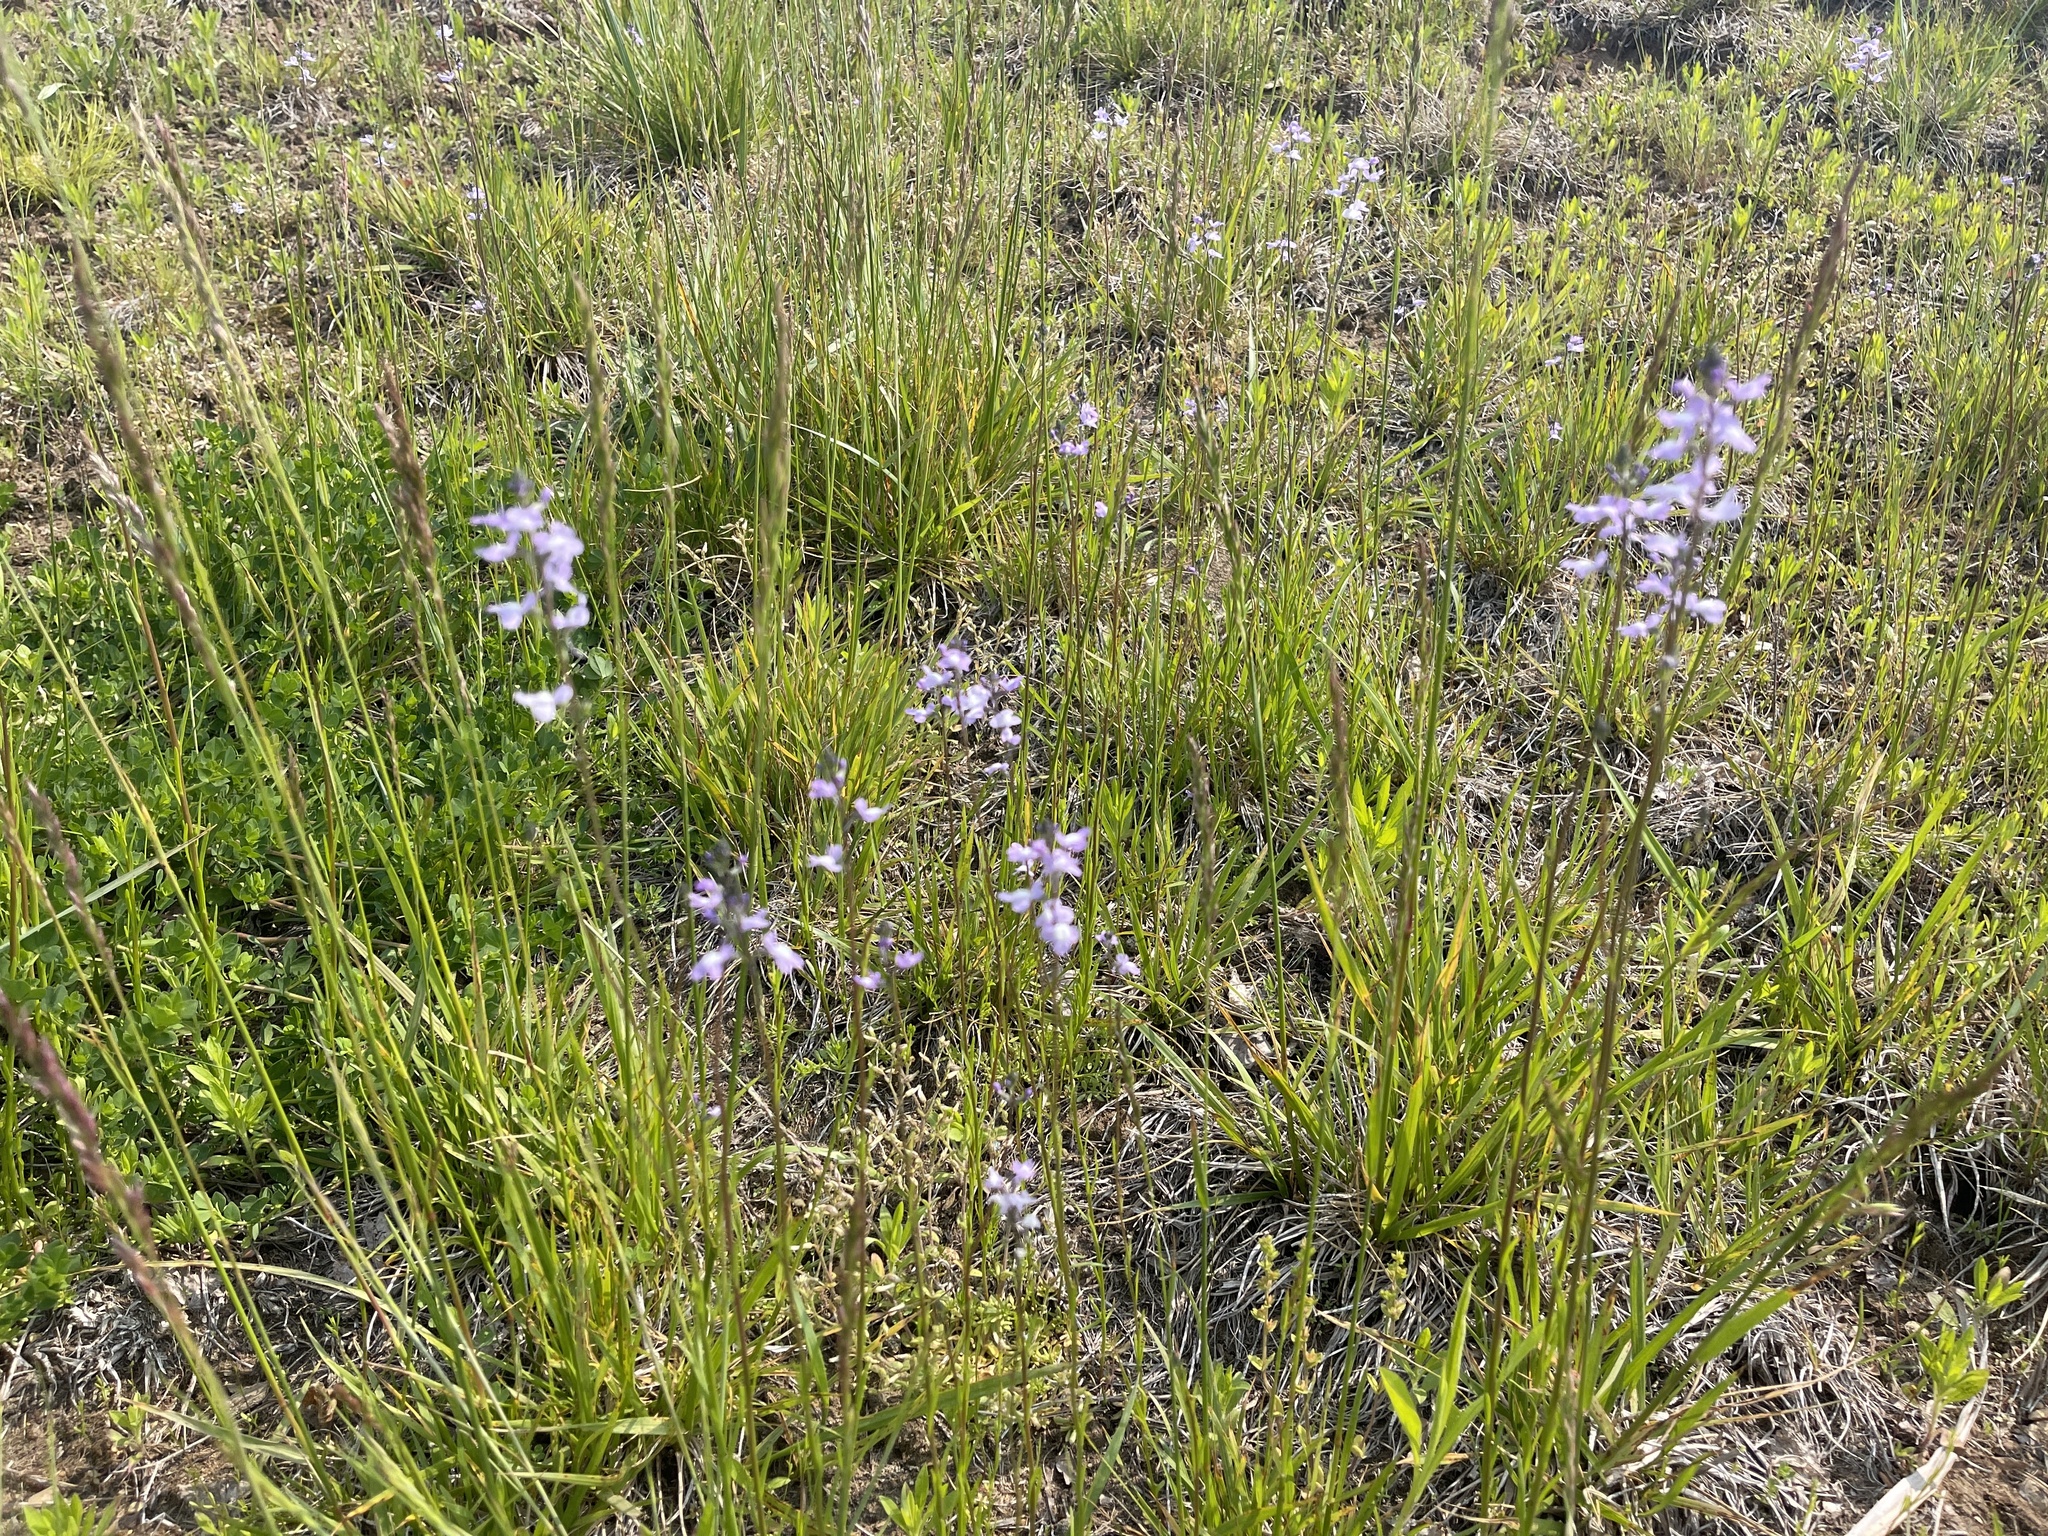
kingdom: Plantae
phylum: Tracheophyta
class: Magnoliopsida
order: Lamiales
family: Plantaginaceae
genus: Nuttallanthus
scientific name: Nuttallanthus canadensis
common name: Blue toadflax
